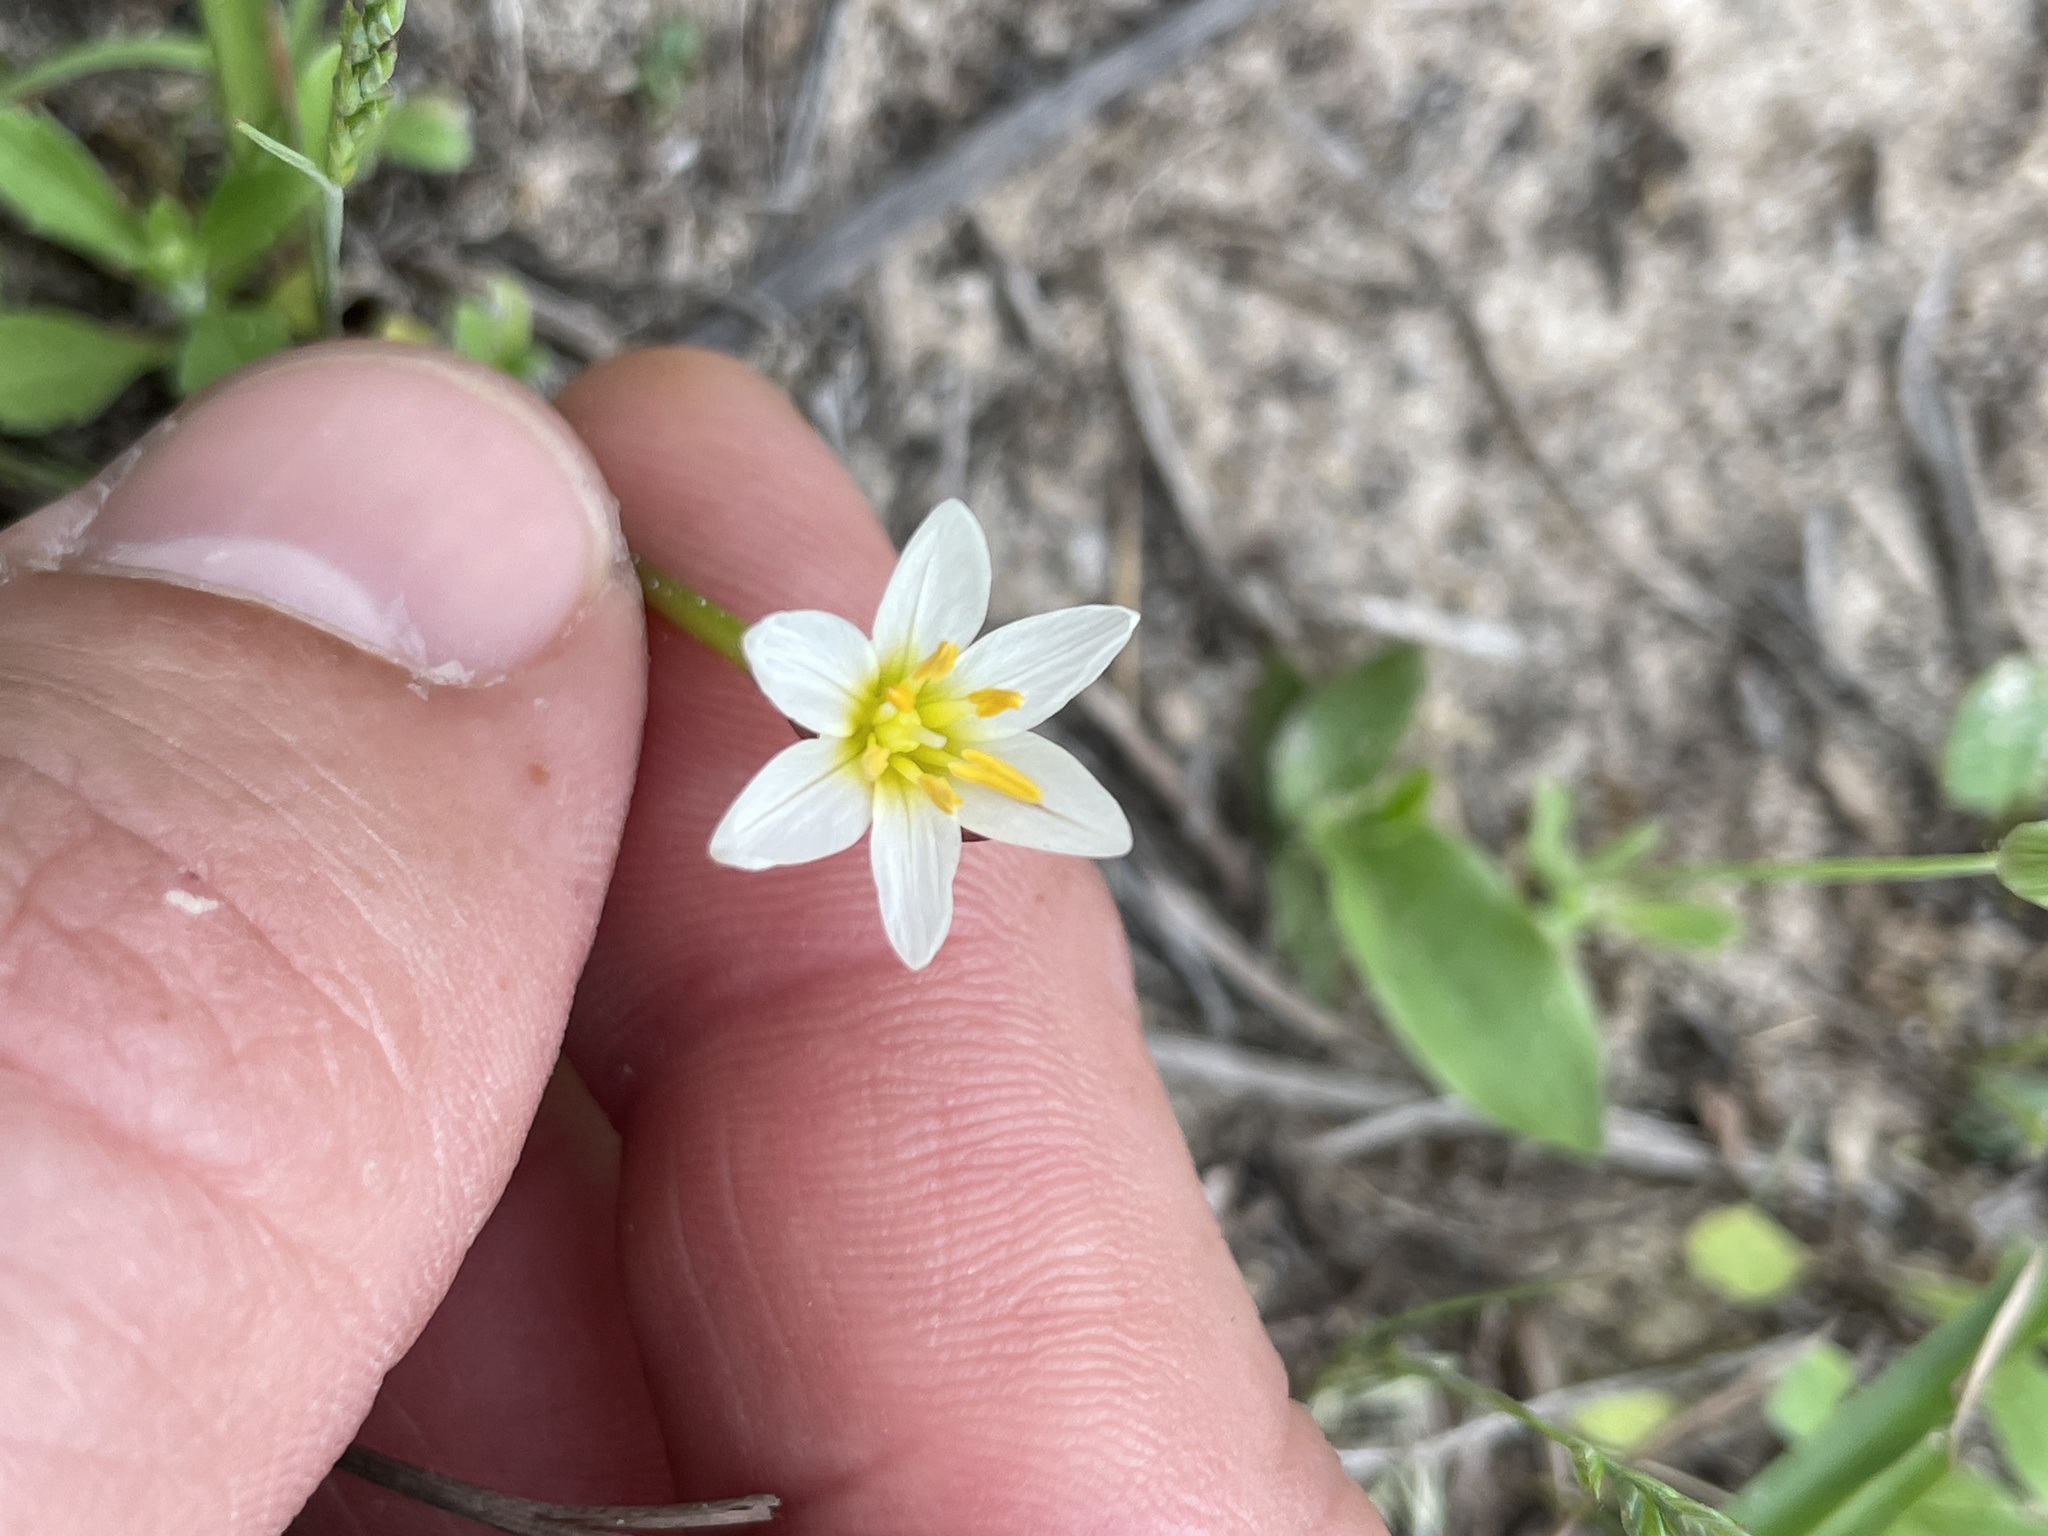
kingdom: Plantae
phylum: Tracheophyta
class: Liliopsida
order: Asparagales
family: Amaryllidaceae
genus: Nothoscordum
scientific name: Nothoscordum bivalve
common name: Crow-poison
